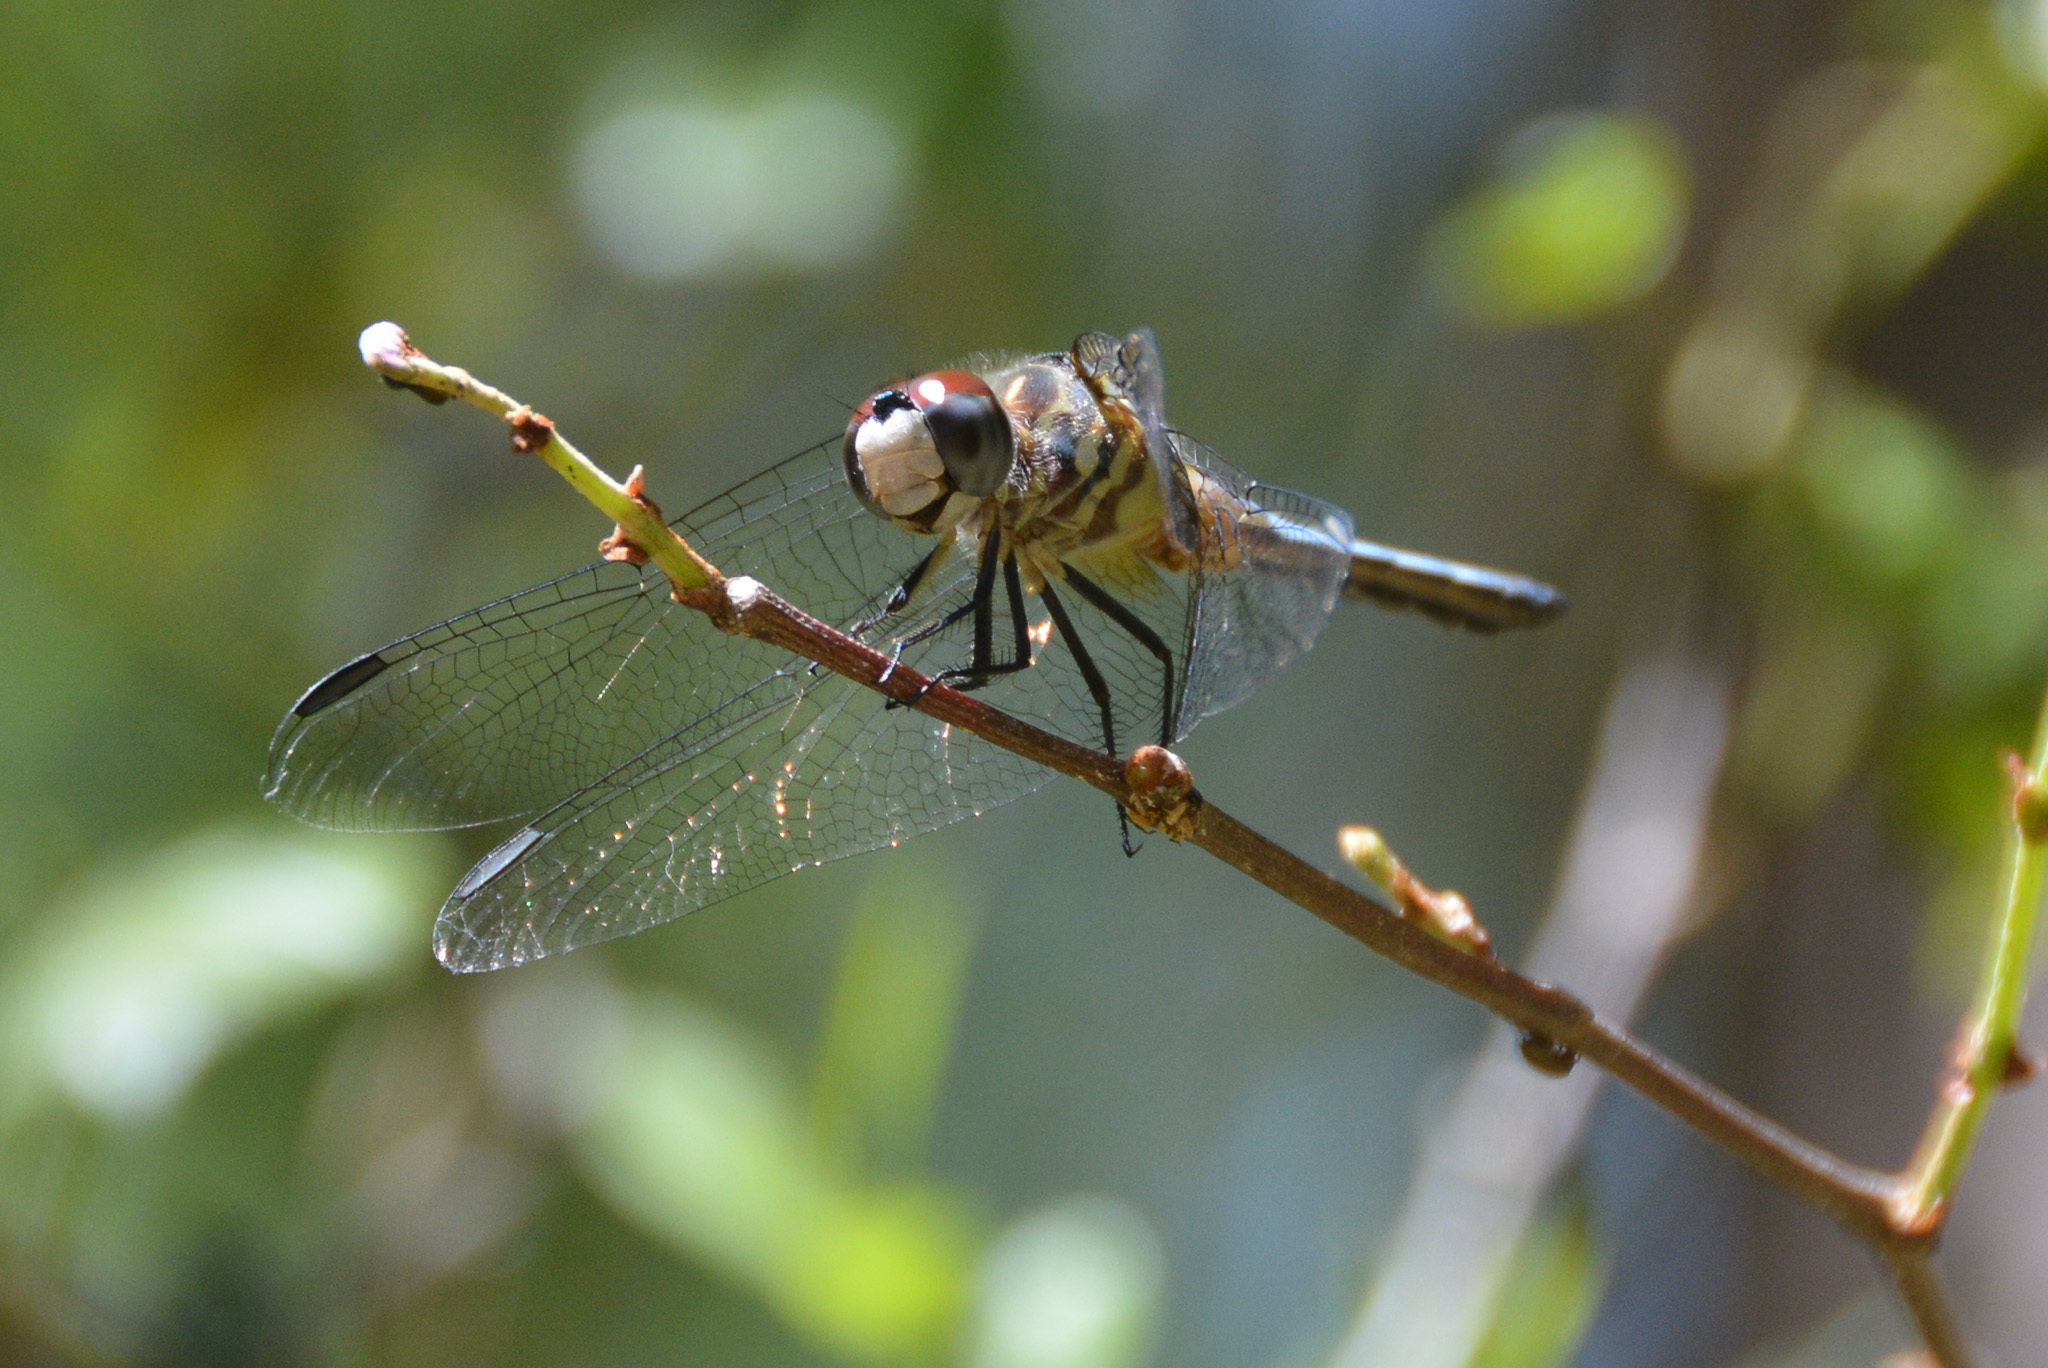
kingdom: Animalia
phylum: Arthropoda
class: Insecta
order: Odonata
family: Libellulidae
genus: Pachydiplax
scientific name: Pachydiplax longipennis
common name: Blue dasher
